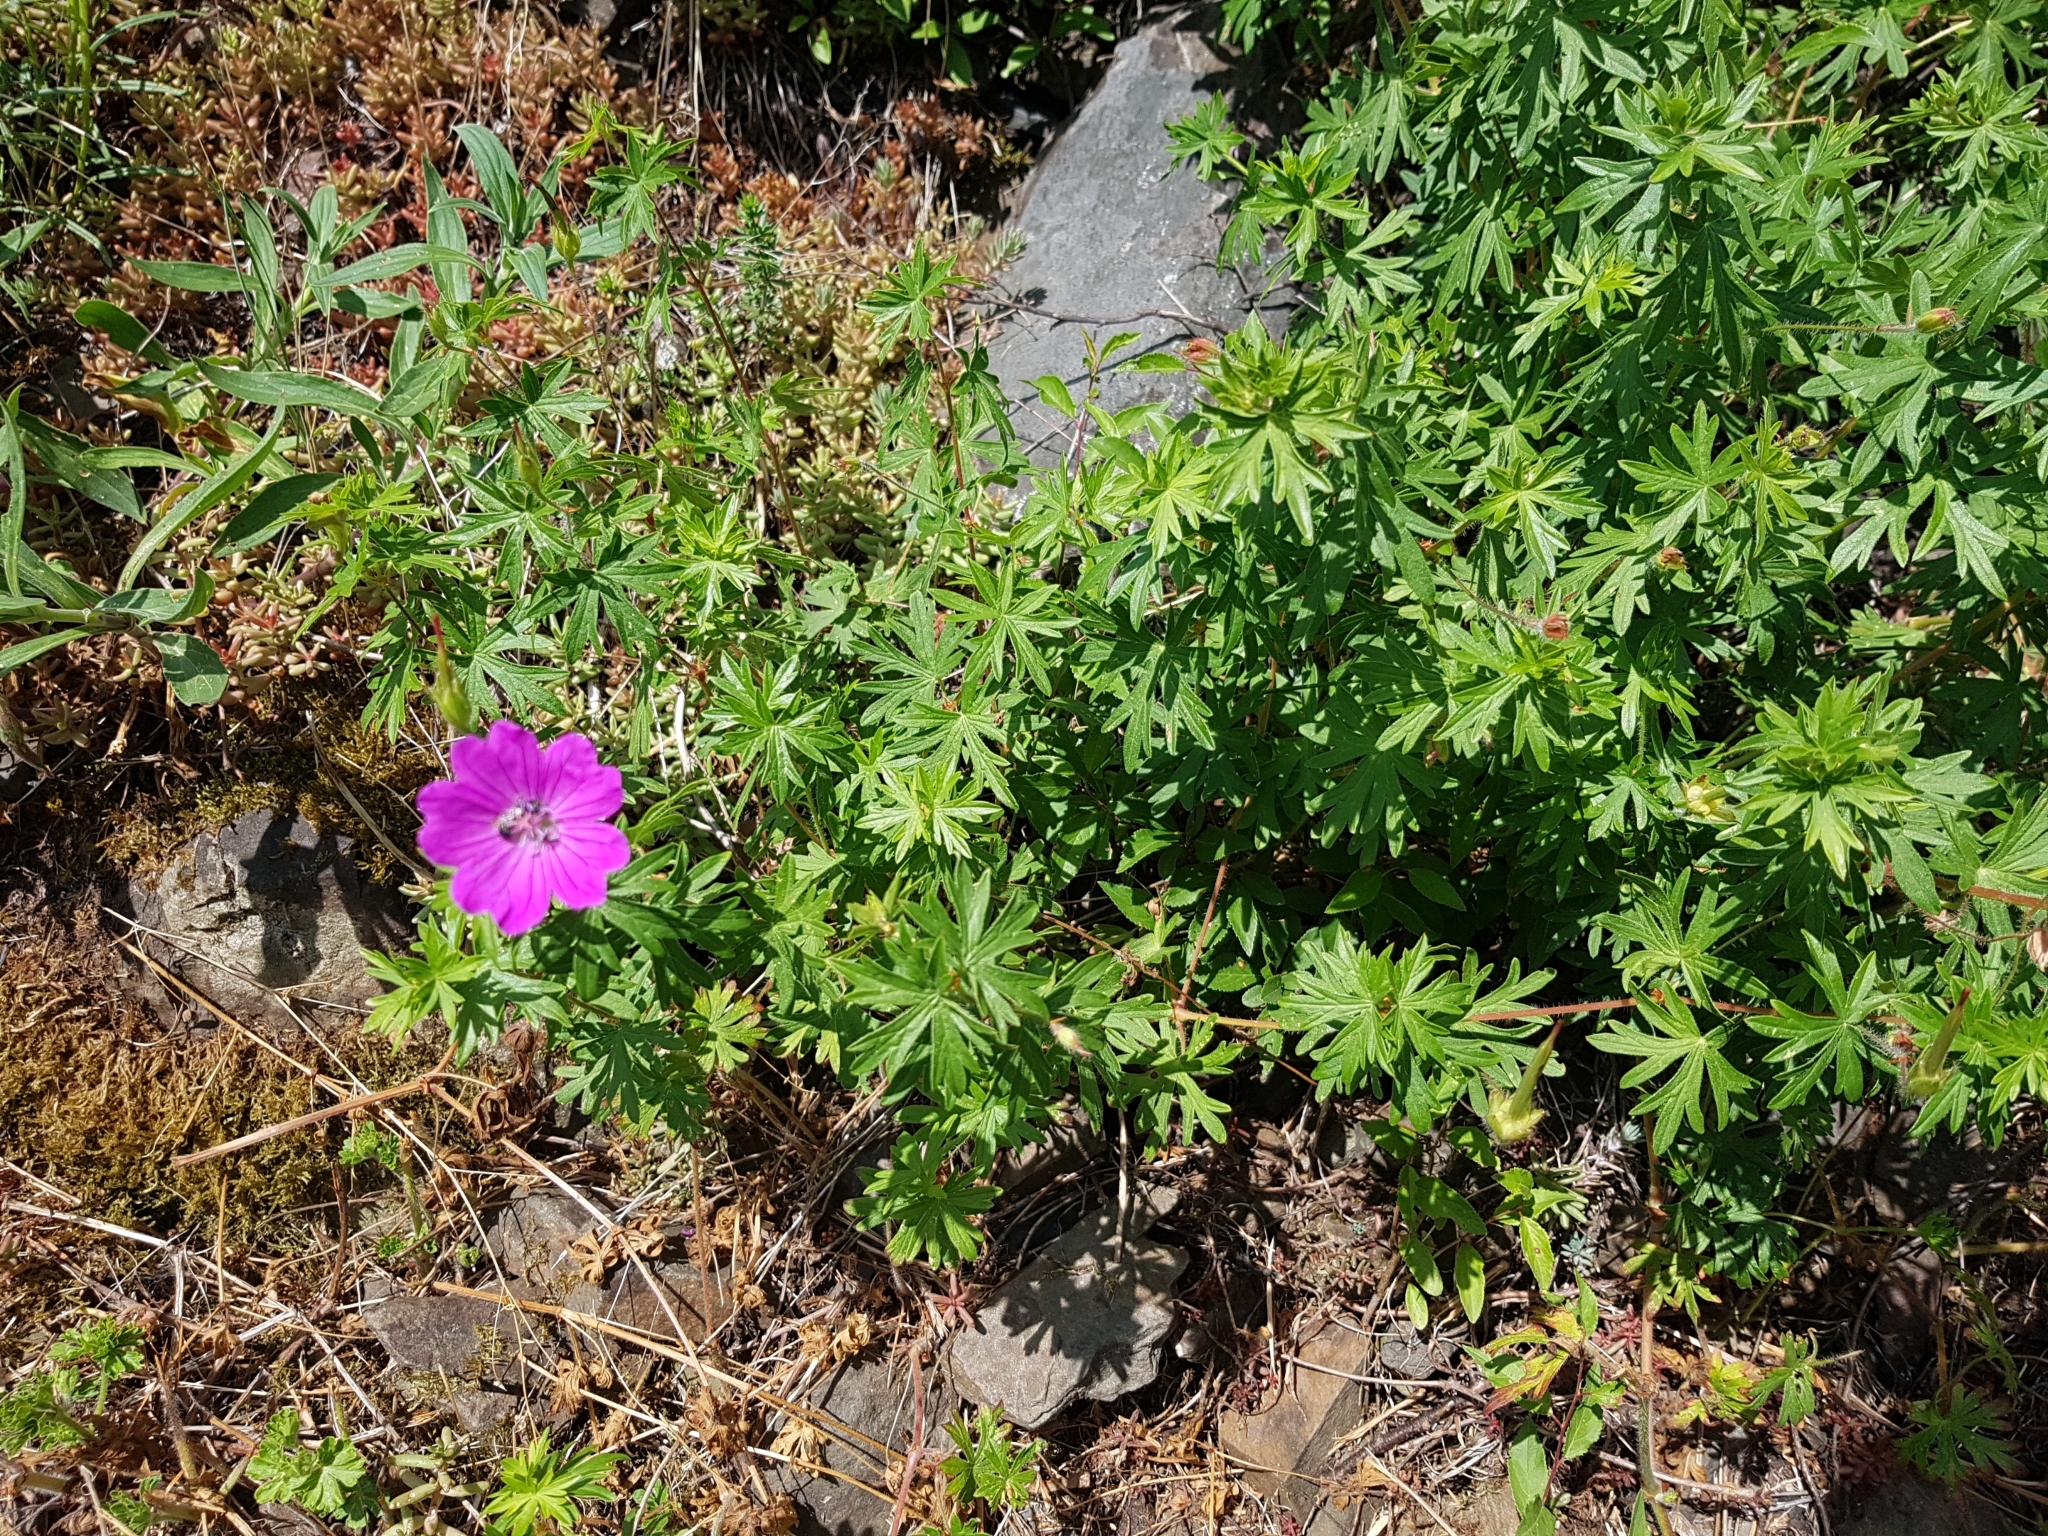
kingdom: Plantae
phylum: Tracheophyta
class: Magnoliopsida
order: Geraniales
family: Geraniaceae
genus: Geranium
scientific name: Geranium sanguineum
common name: Bloody crane's-bill
